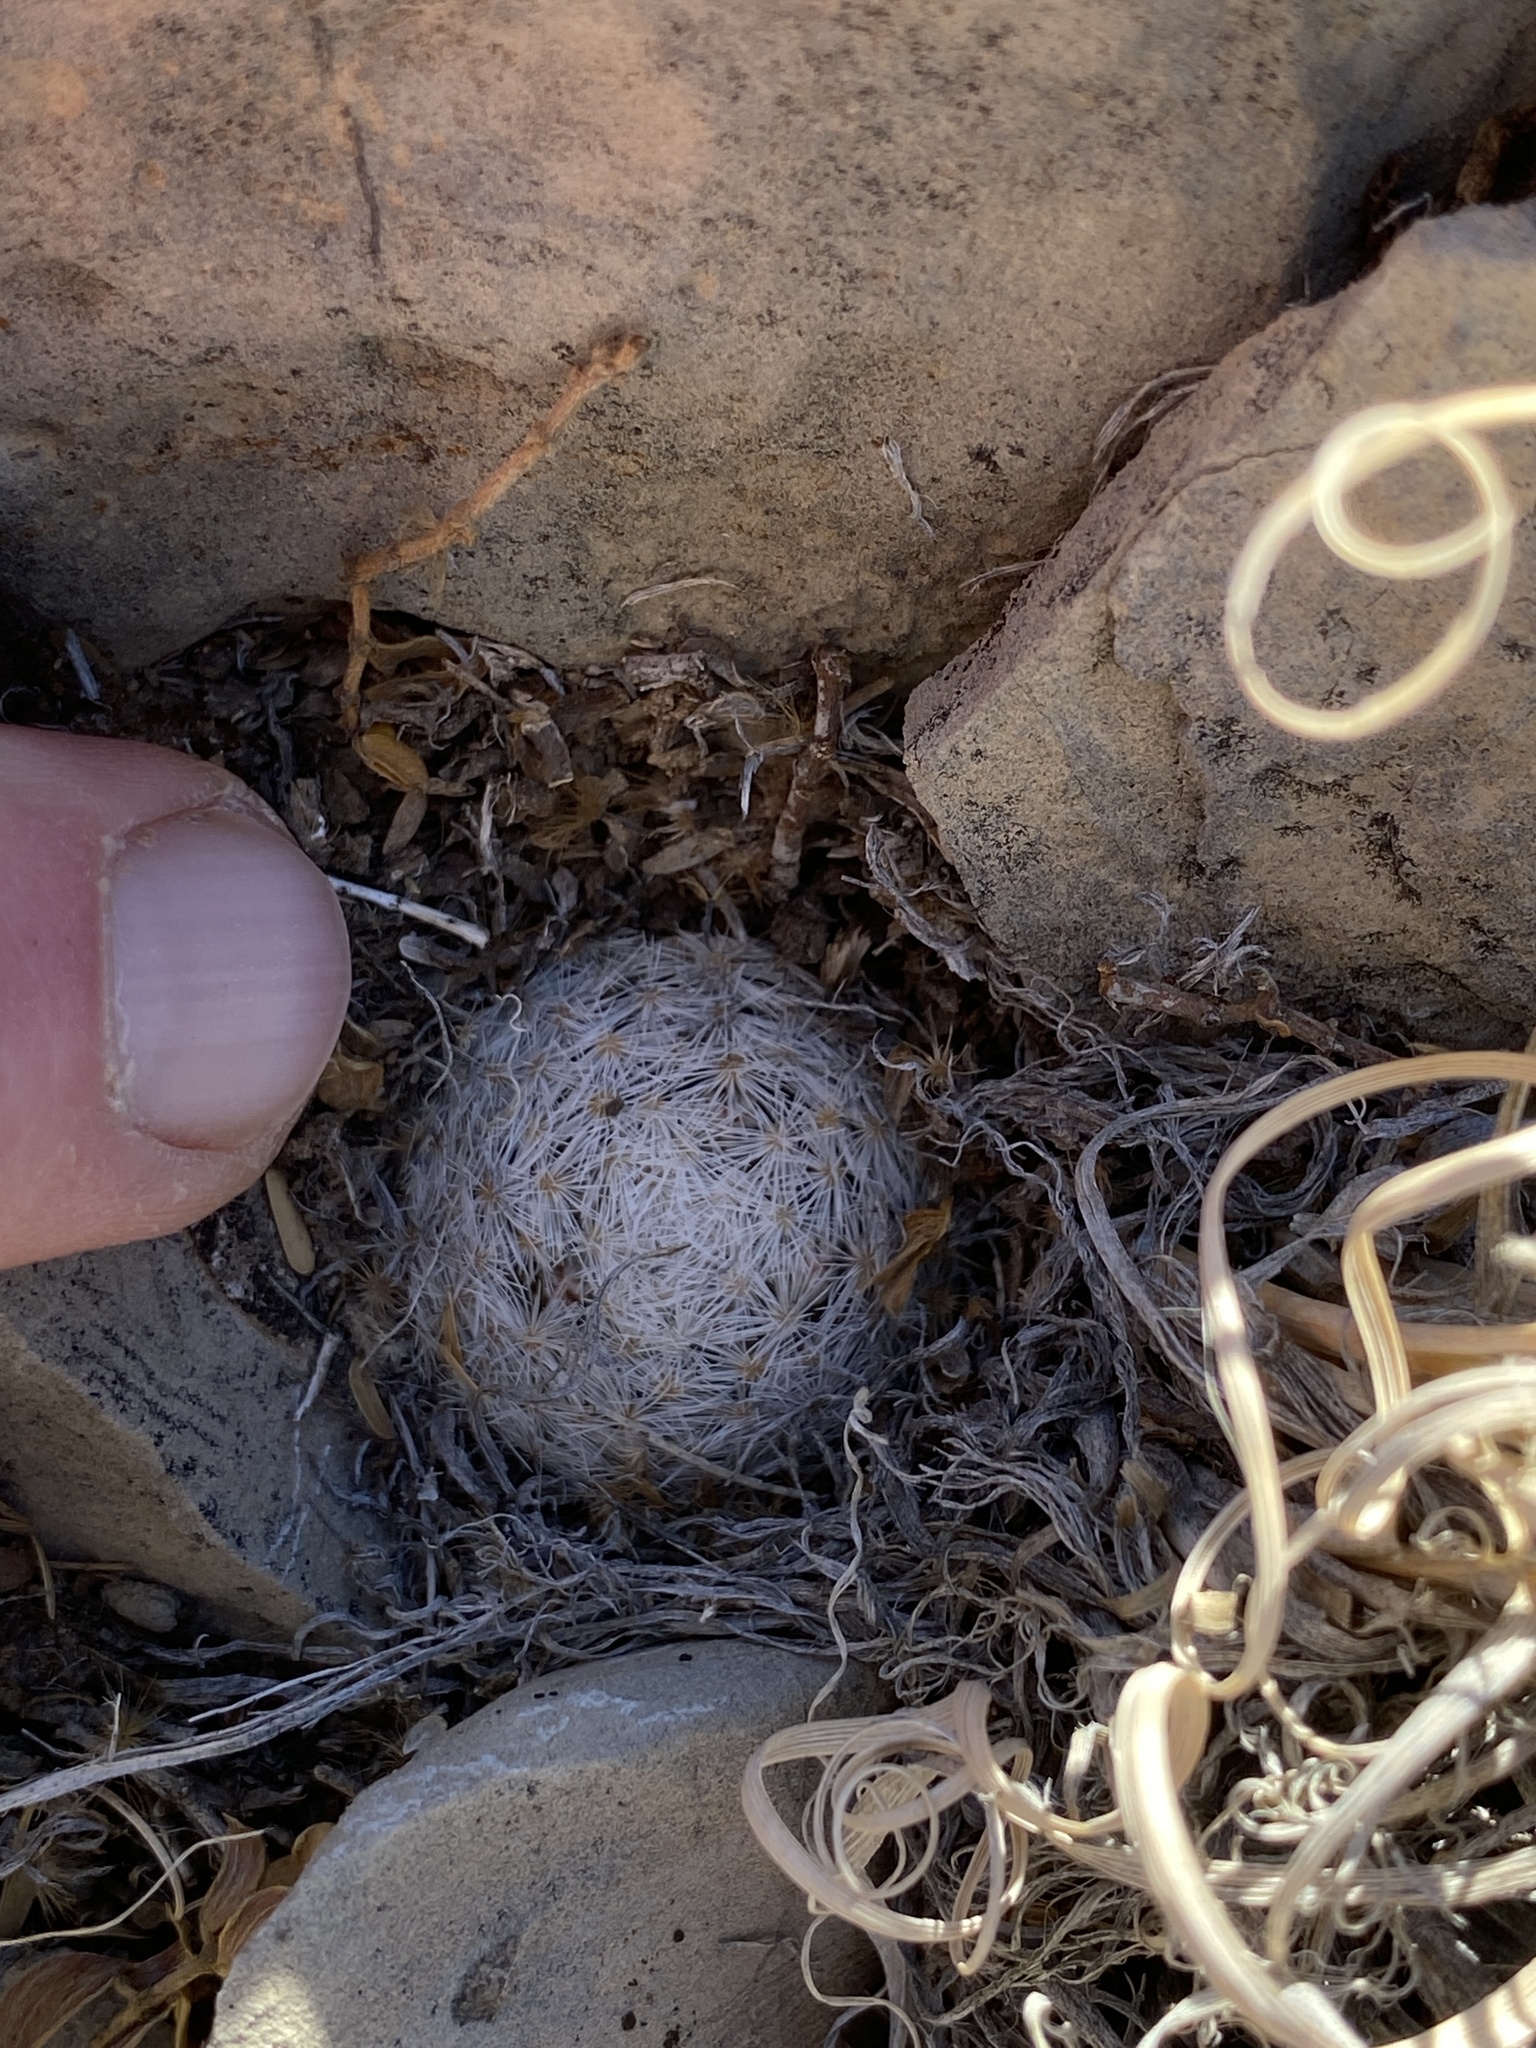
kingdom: Plantae
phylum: Tracheophyta
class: Magnoliopsida
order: Caryophyllales
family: Cactaceae
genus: Mammillaria
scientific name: Mammillaria lasiacantha
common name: Lace-spine nipple cactus
